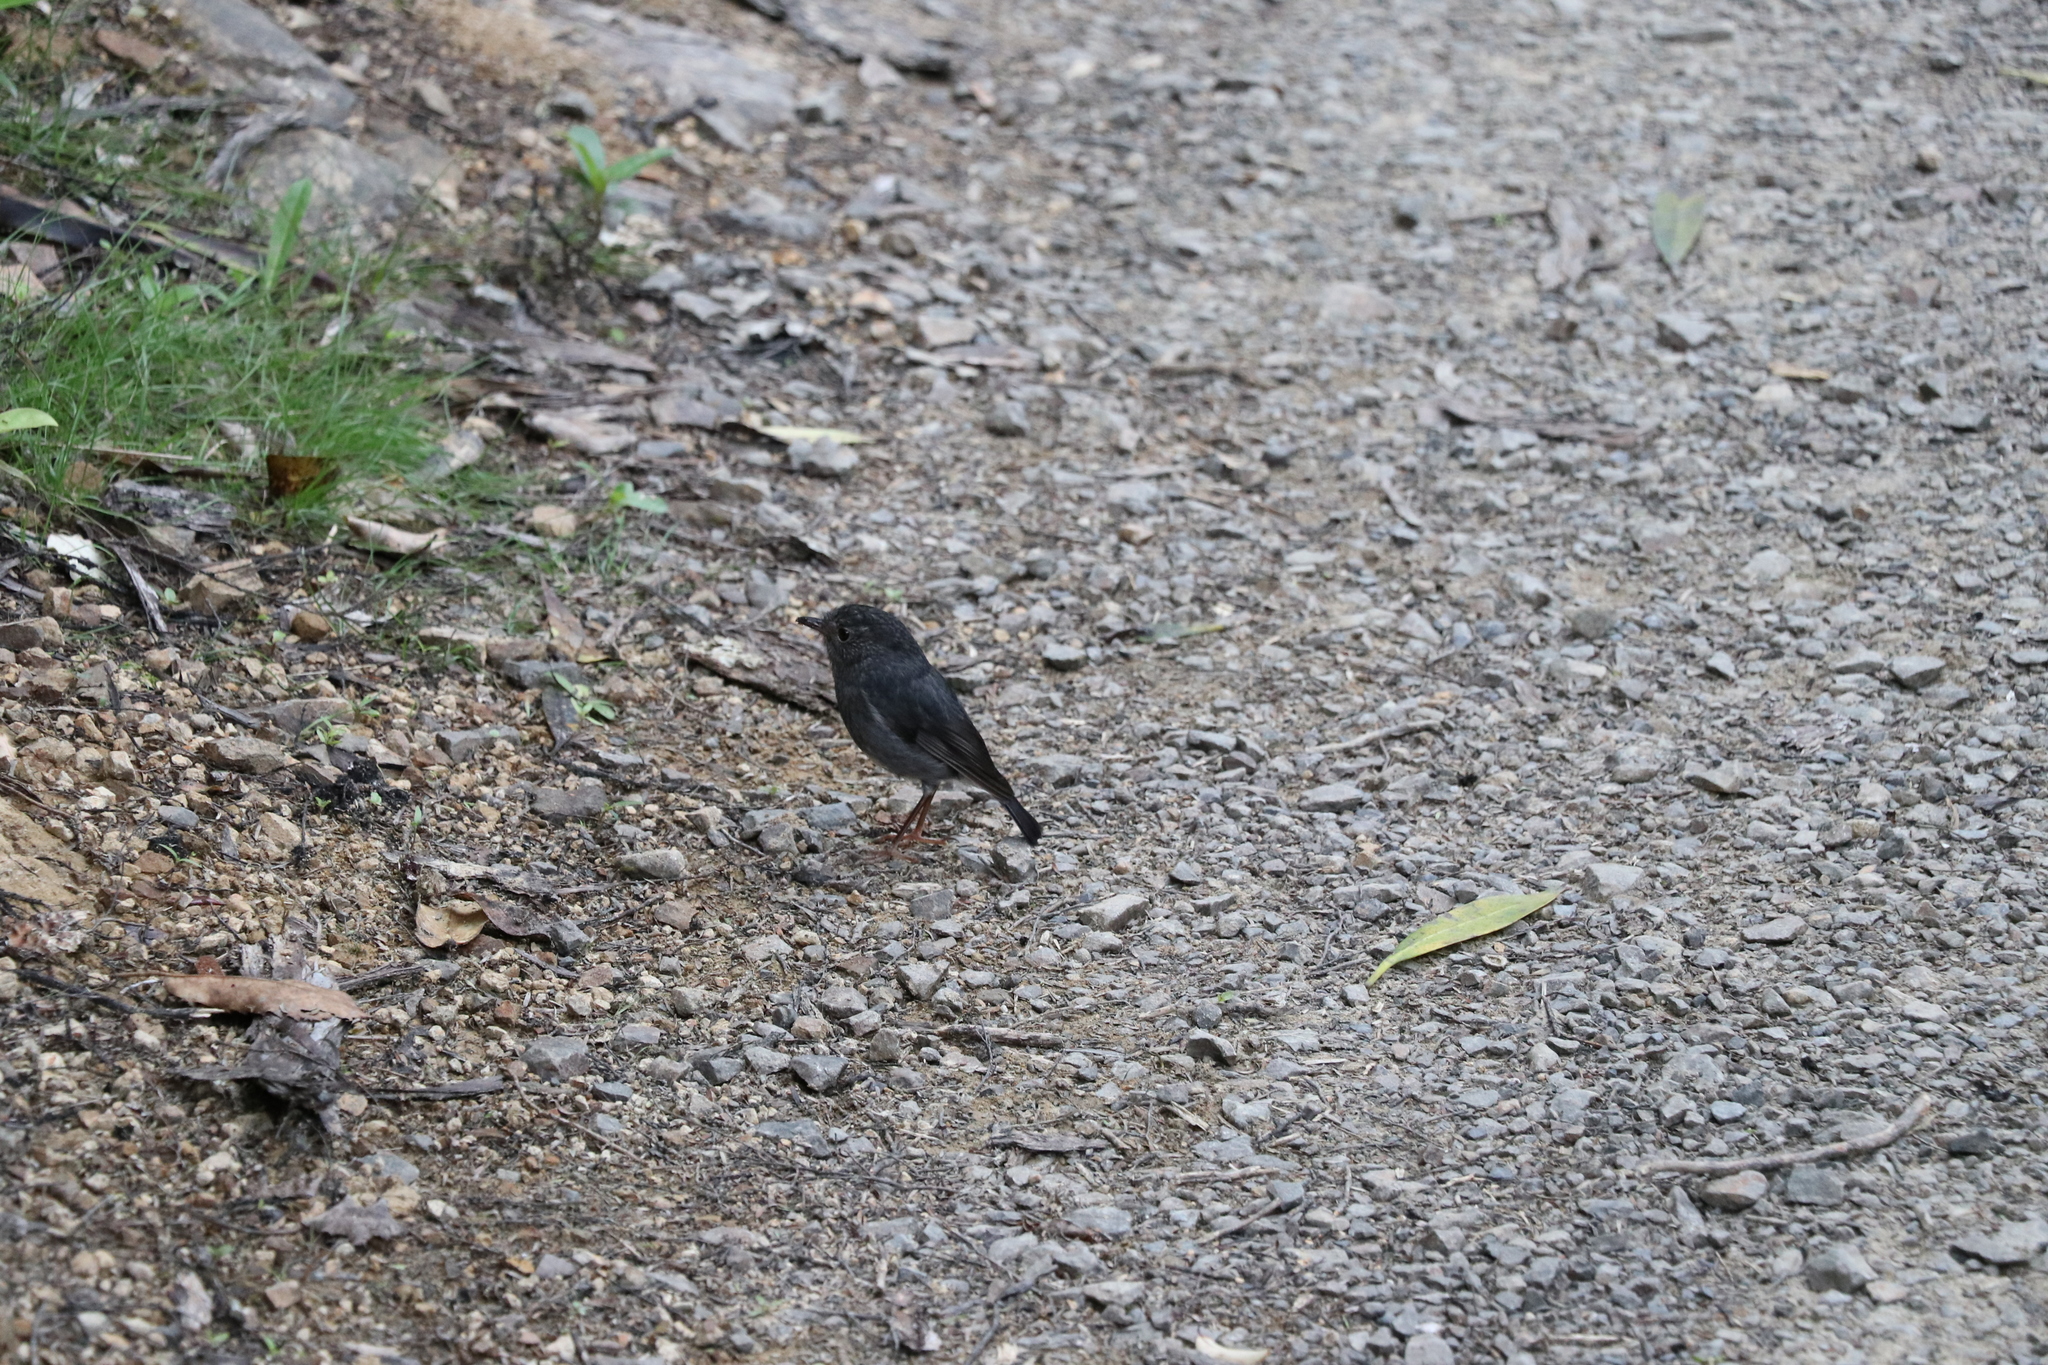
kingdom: Animalia
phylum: Chordata
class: Aves
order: Passeriformes
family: Petroicidae
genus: Petroica
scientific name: Petroica australis
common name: New zealand robin
